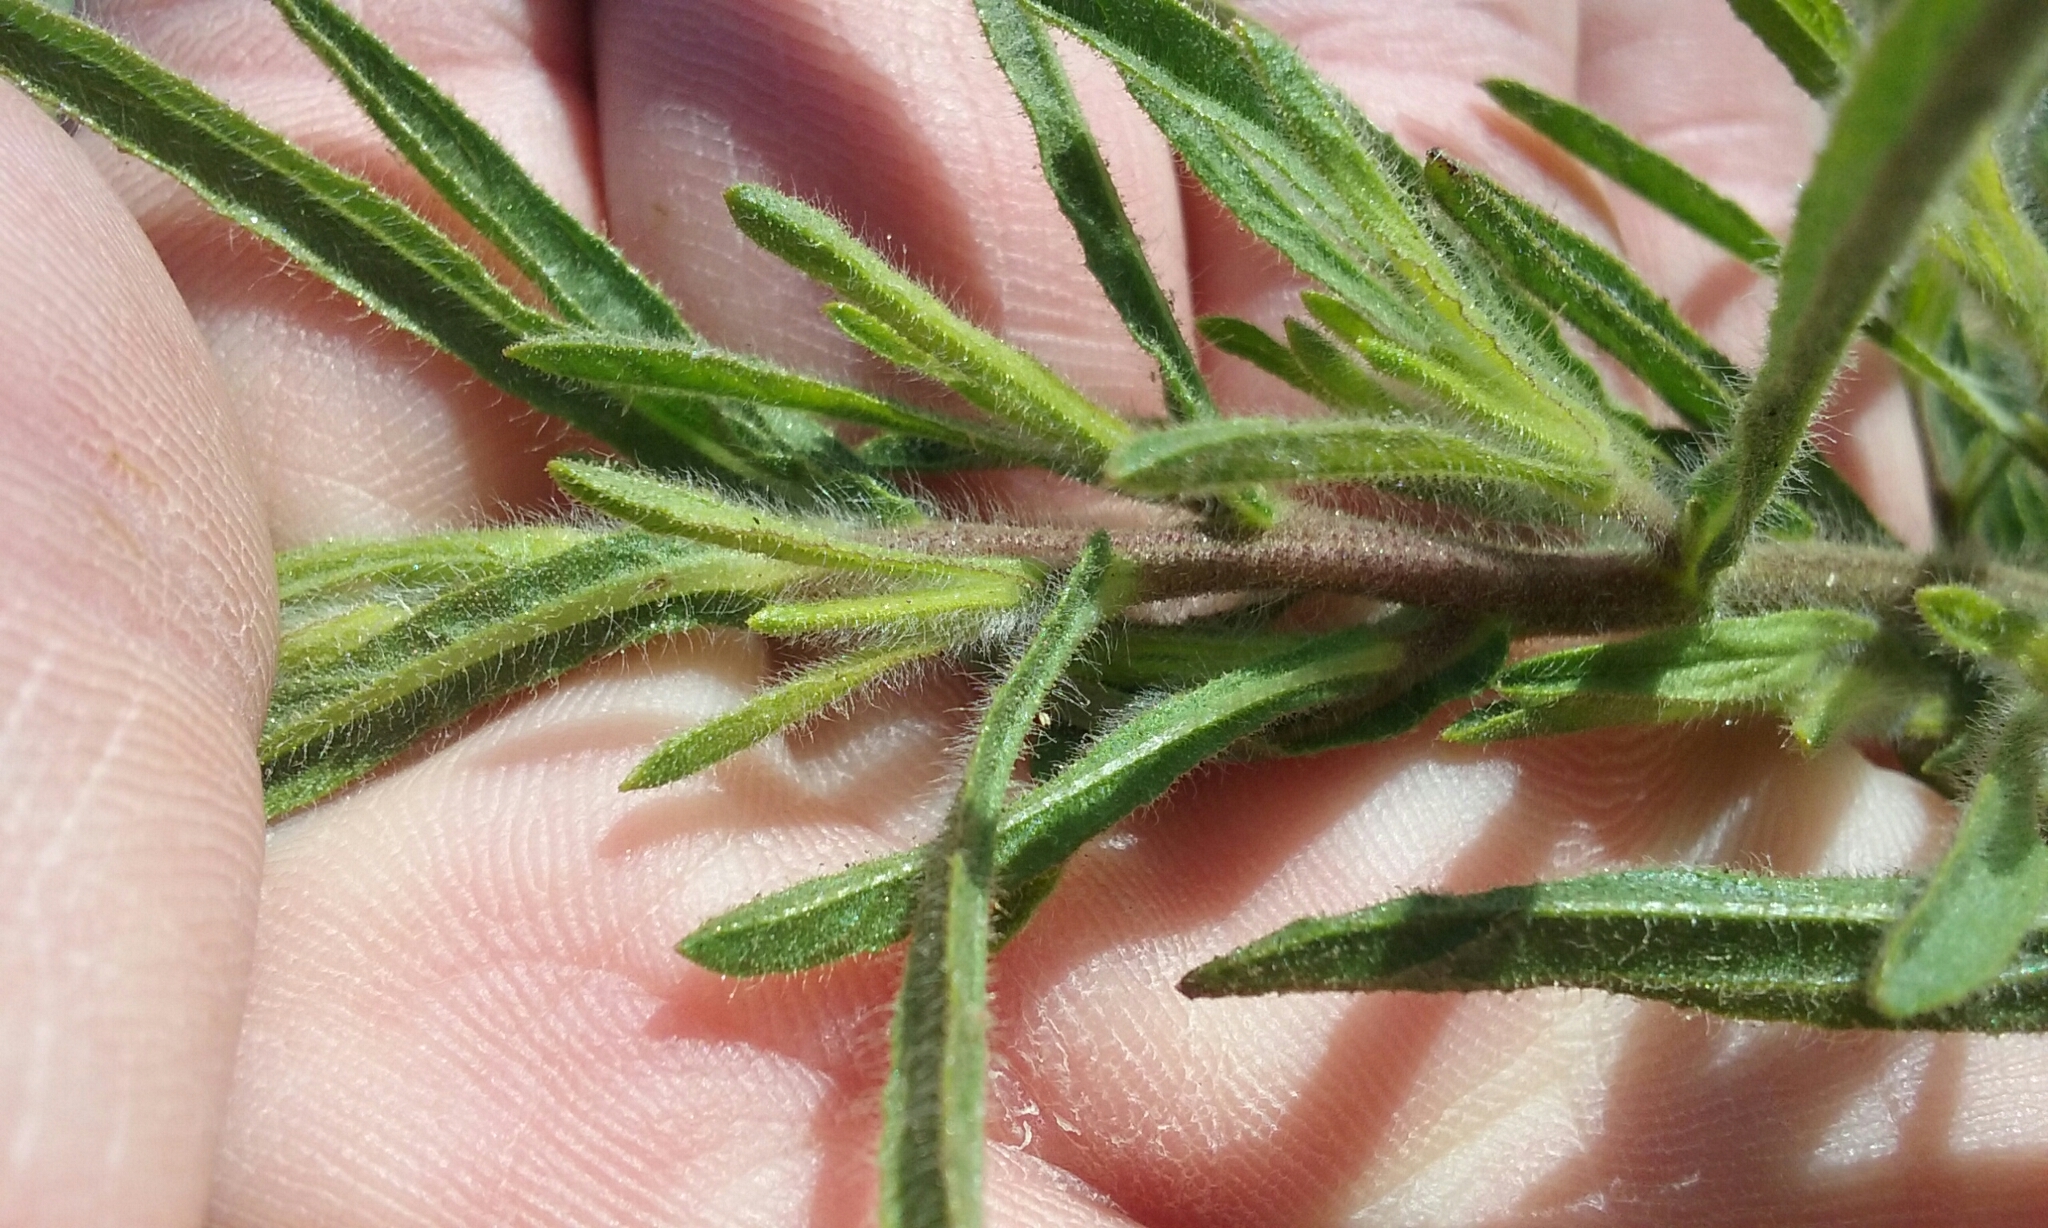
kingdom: Plantae
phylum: Tracheophyta
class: Magnoliopsida
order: Asterales
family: Asteraceae
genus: Dittrichia
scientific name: Dittrichia graveolens
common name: Stinking fleabane
